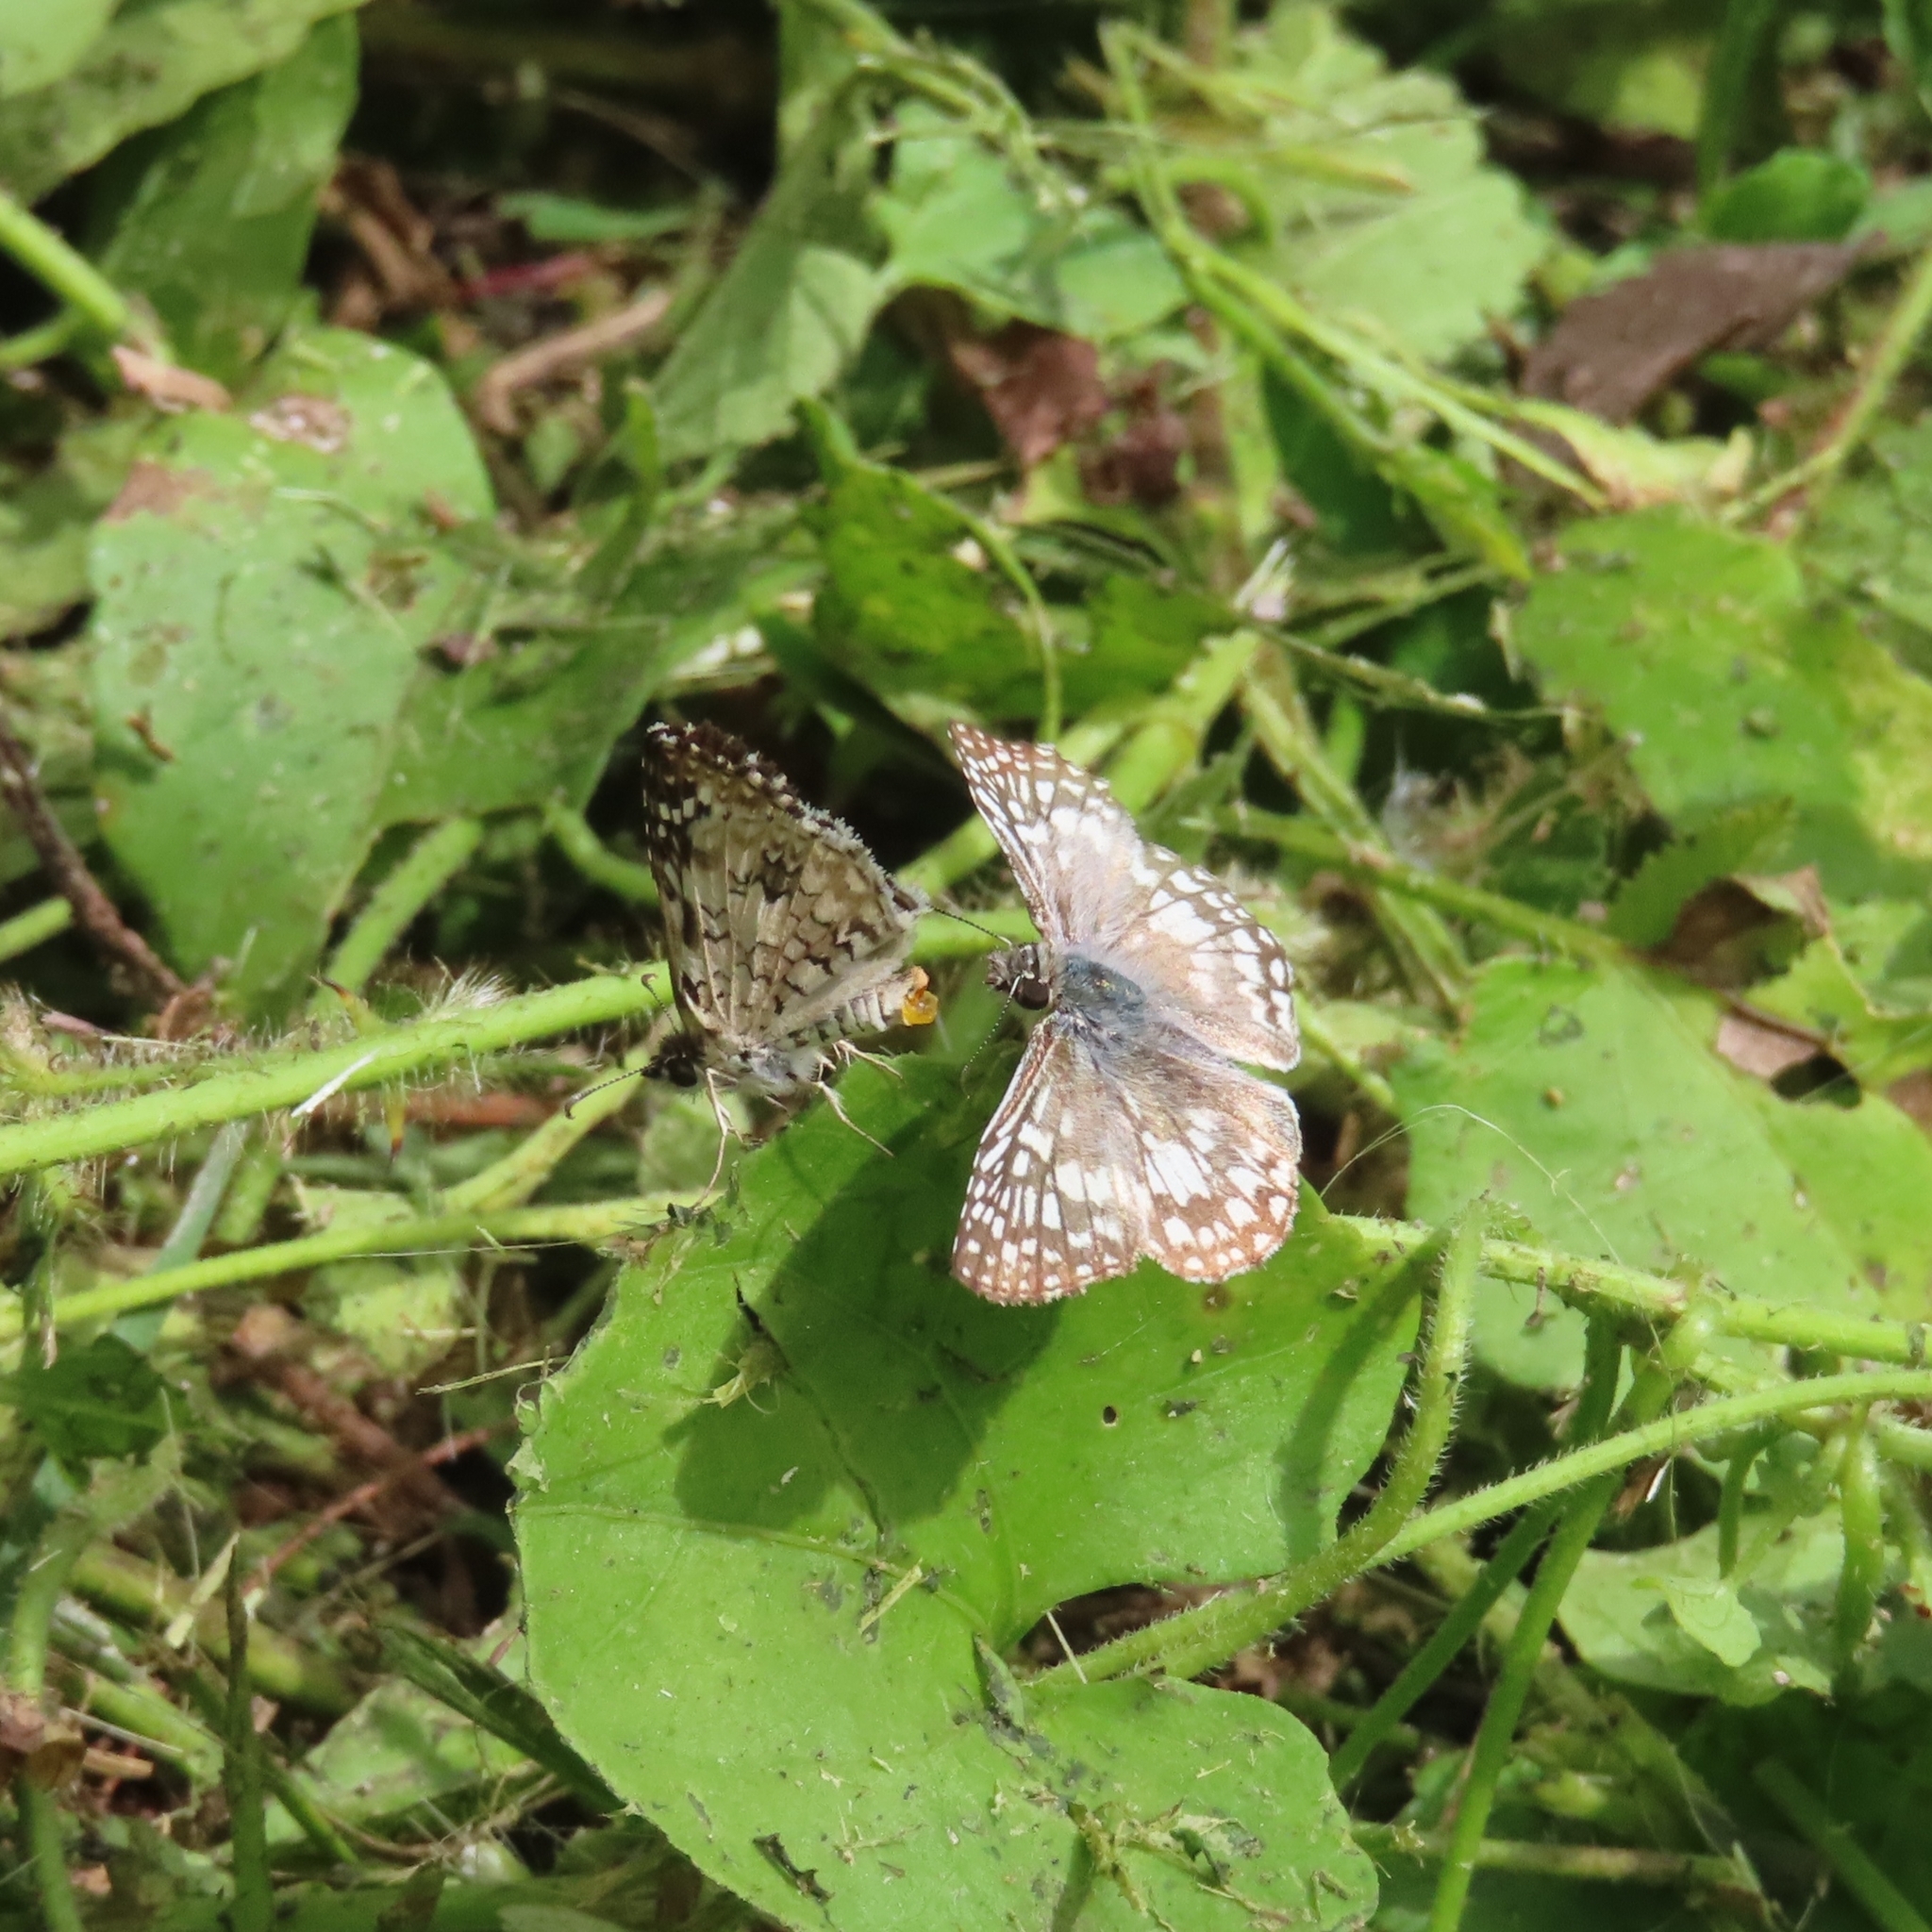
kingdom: Animalia
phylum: Arthropoda
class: Insecta
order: Lepidoptera
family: Hesperiidae
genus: Pyrgus
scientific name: Pyrgus oileus
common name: Tropical checkered-skipper
